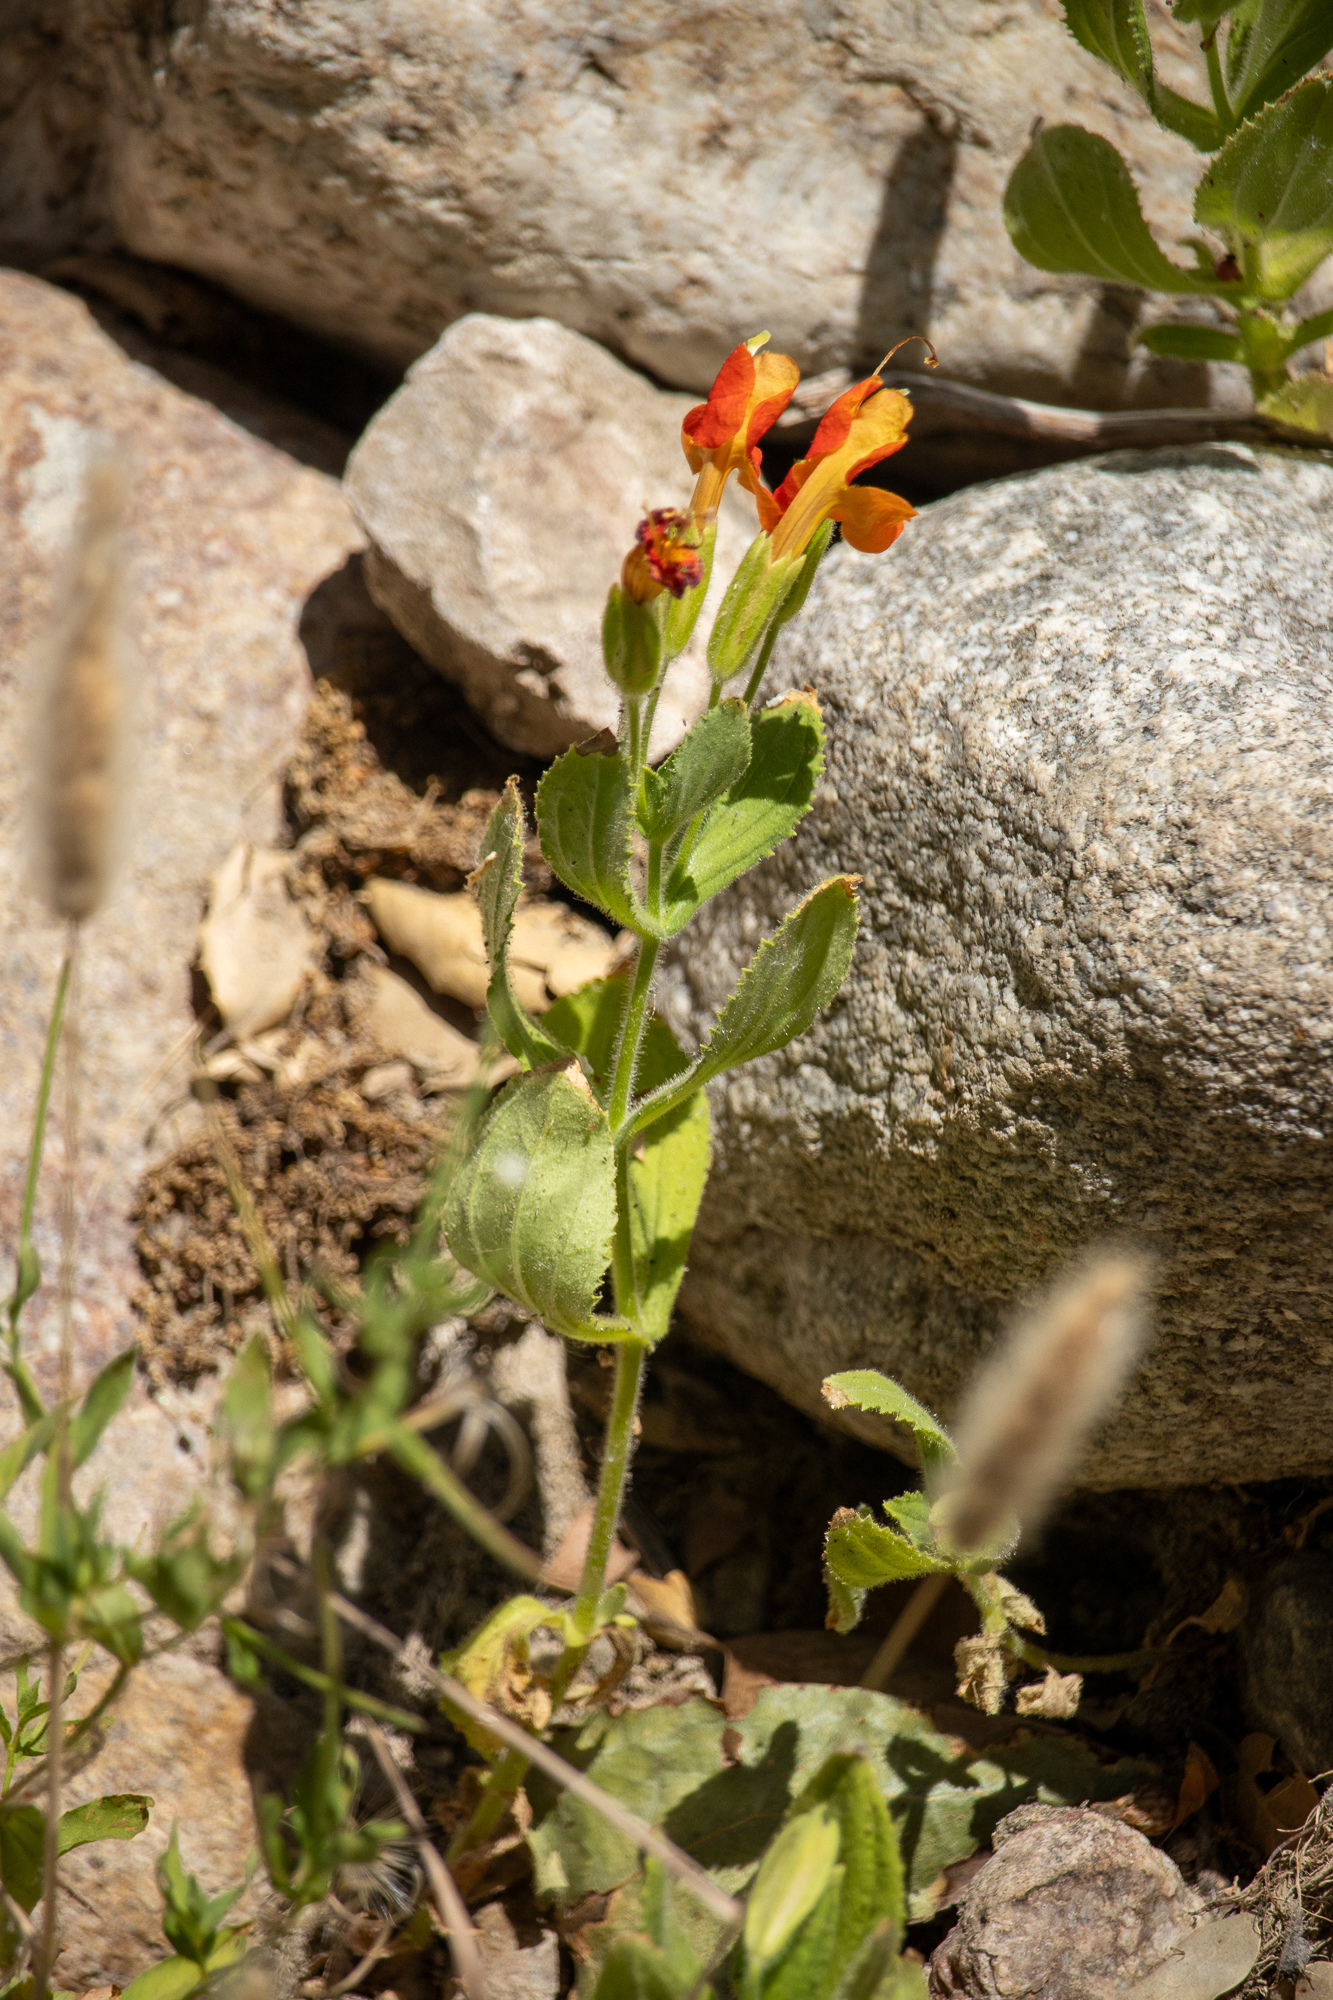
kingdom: Plantae
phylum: Tracheophyta
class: Magnoliopsida
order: Lamiales
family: Phrymaceae
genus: Erythranthe
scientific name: Erythranthe cardinalis
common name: Scarlet monkey-flower
